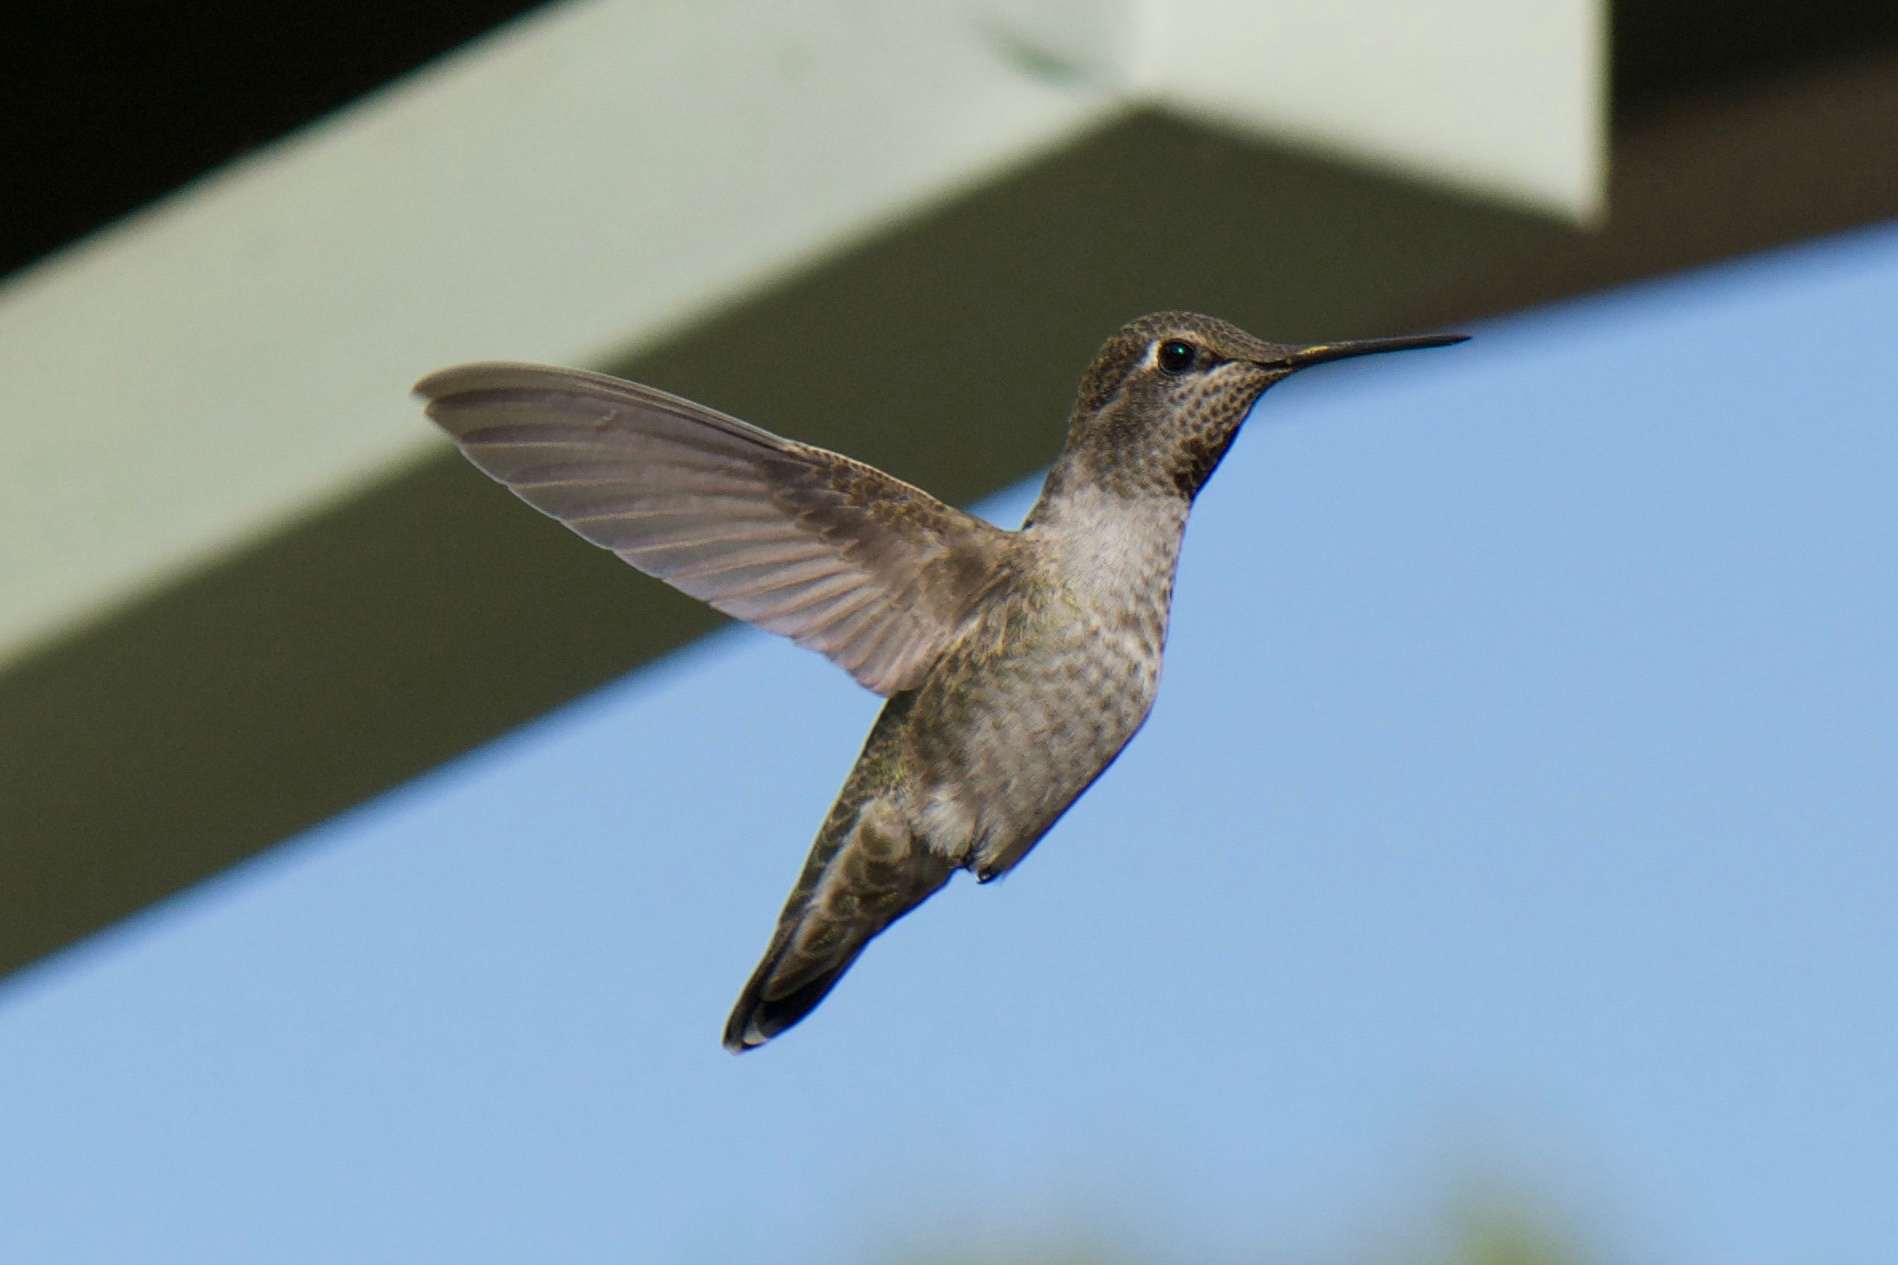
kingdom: Animalia
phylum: Chordata
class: Aves
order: Apodiformes
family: Trochilidae
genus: Calypte
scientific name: Calypte anna
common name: Anna's hummingbird
